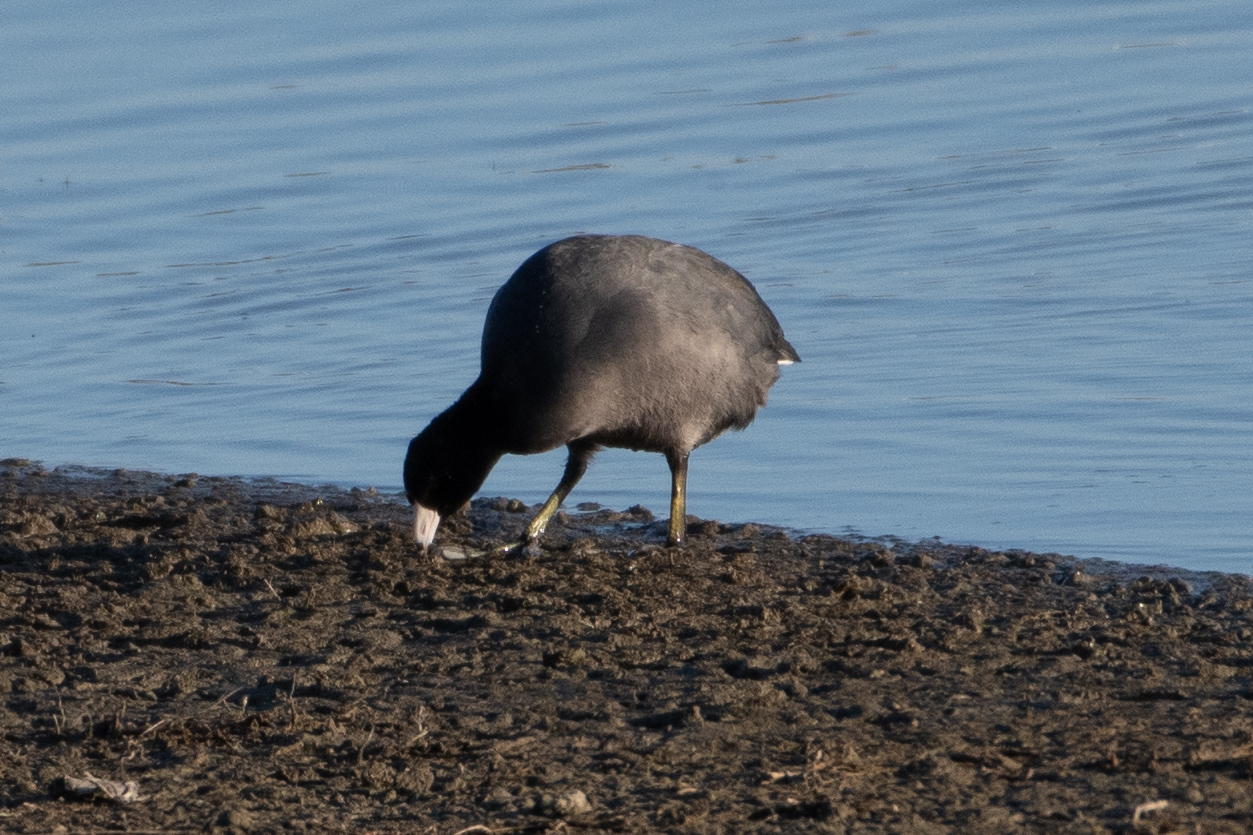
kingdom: Animalia
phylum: Chordata
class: Aves
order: Gruiformes
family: Rallidae
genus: Fulica
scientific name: Fulica americana
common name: American coot
